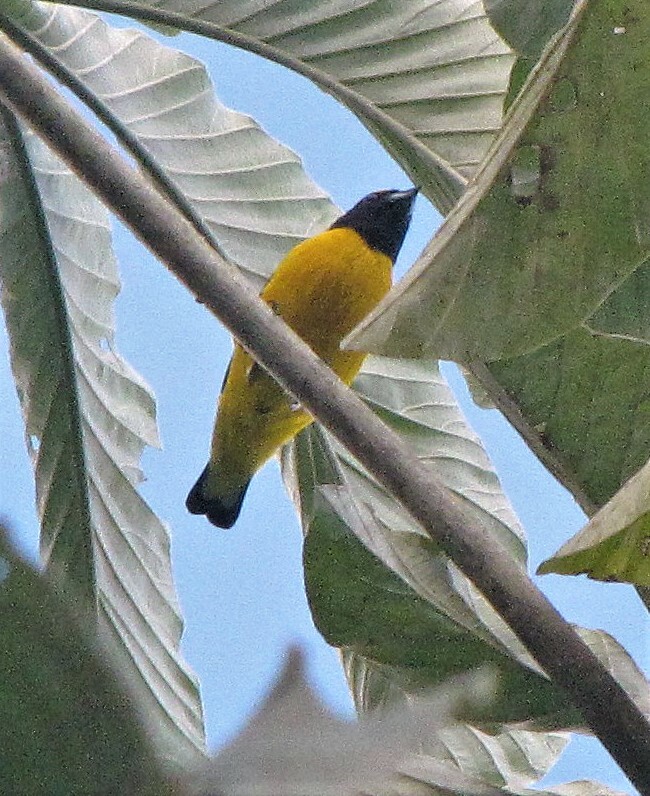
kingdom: Animalia
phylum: Chordata
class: Aves
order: Passeriformes
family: Fringillidae
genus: Euphonia
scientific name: Euphonia chlorotica
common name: Purple-throated euphonia
